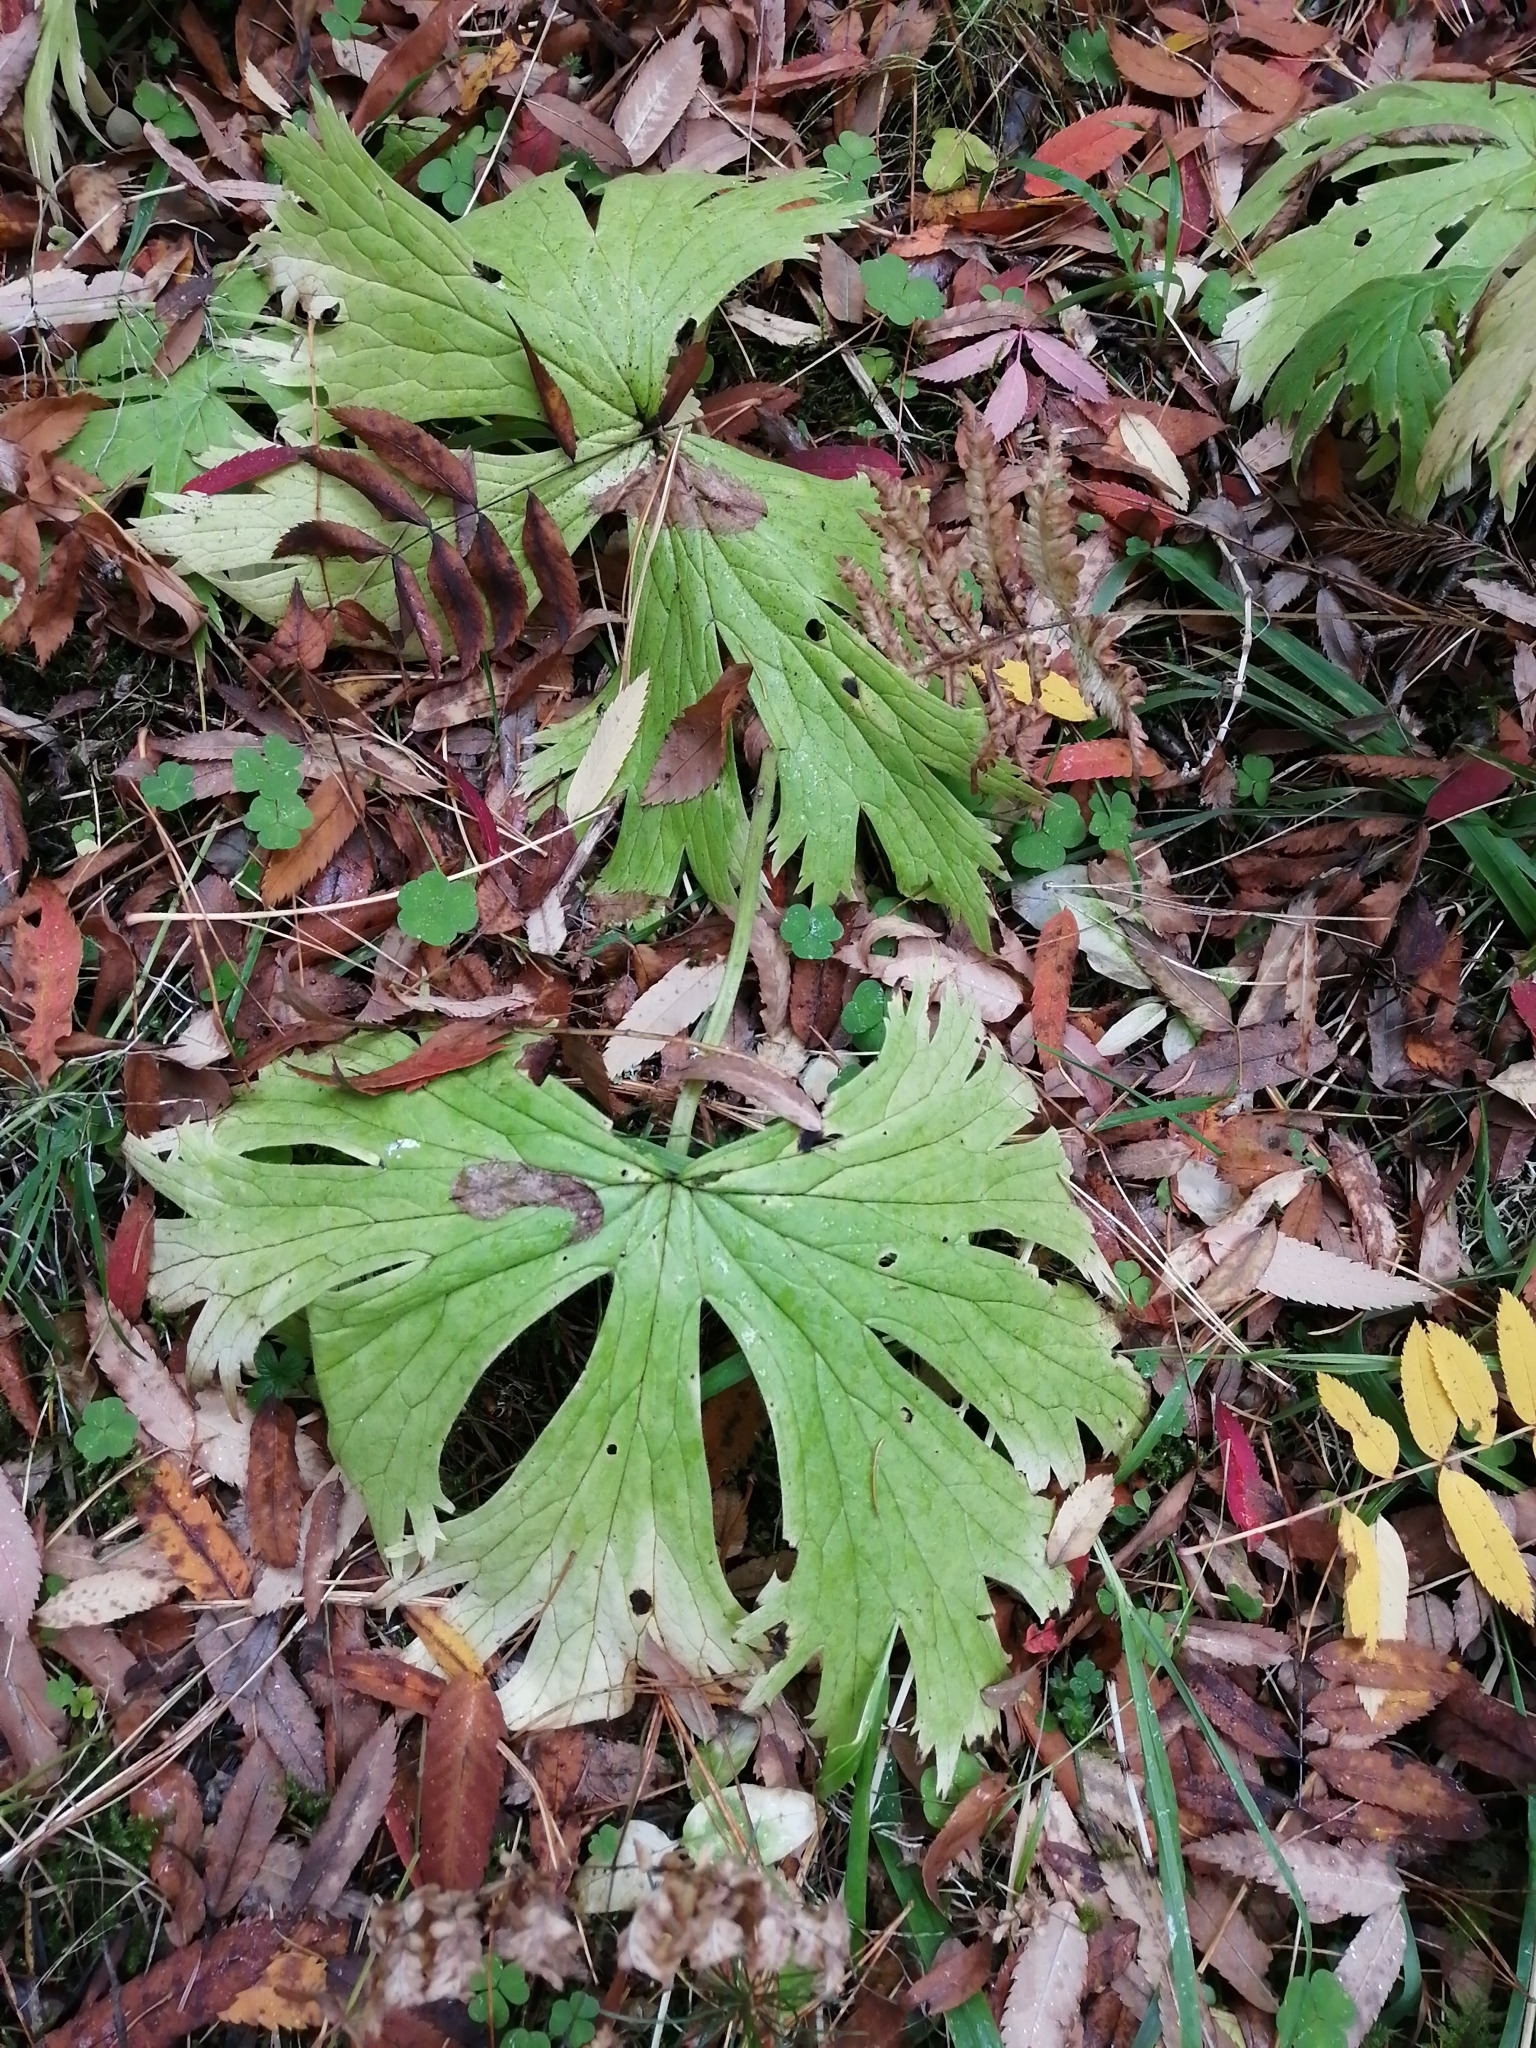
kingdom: Plantae
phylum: Tracheophyta
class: Magnoliopsida
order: Ranunculales
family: Ranunculaceae
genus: Aconitum
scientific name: Aconitum septentrionale
